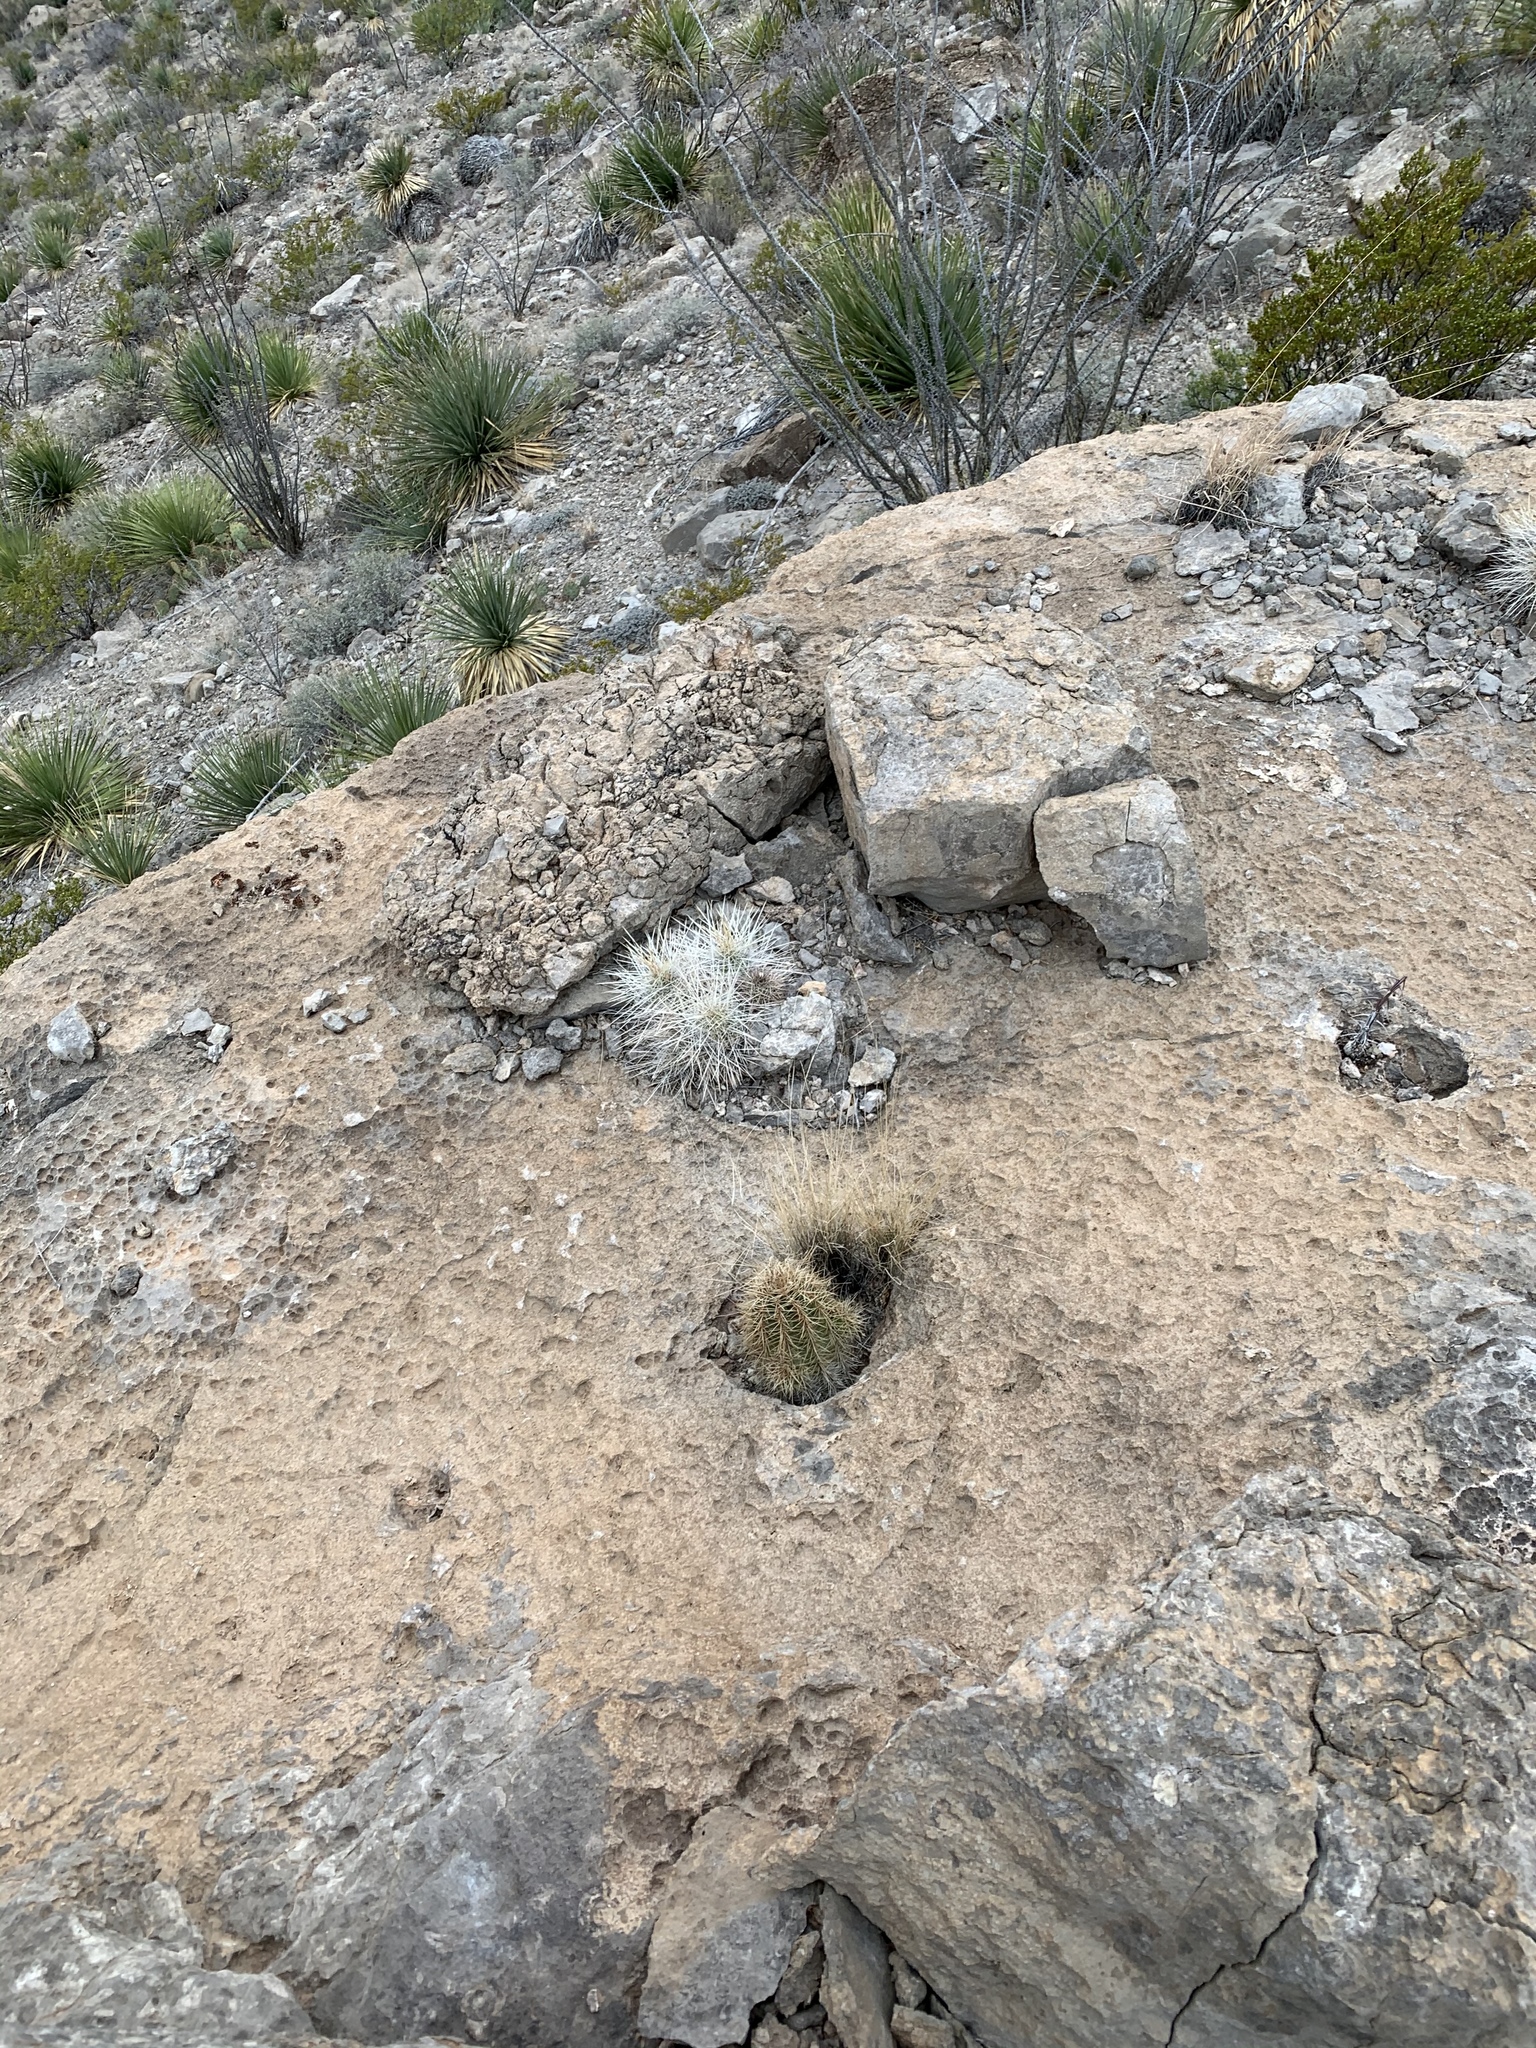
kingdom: Plantae
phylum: Tracheophyta
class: Magnoliopsida
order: Caryophyllales
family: Cactaceae
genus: Echinocereus
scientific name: Echinocereus coccineus
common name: Scarlet hedgehog cactus
